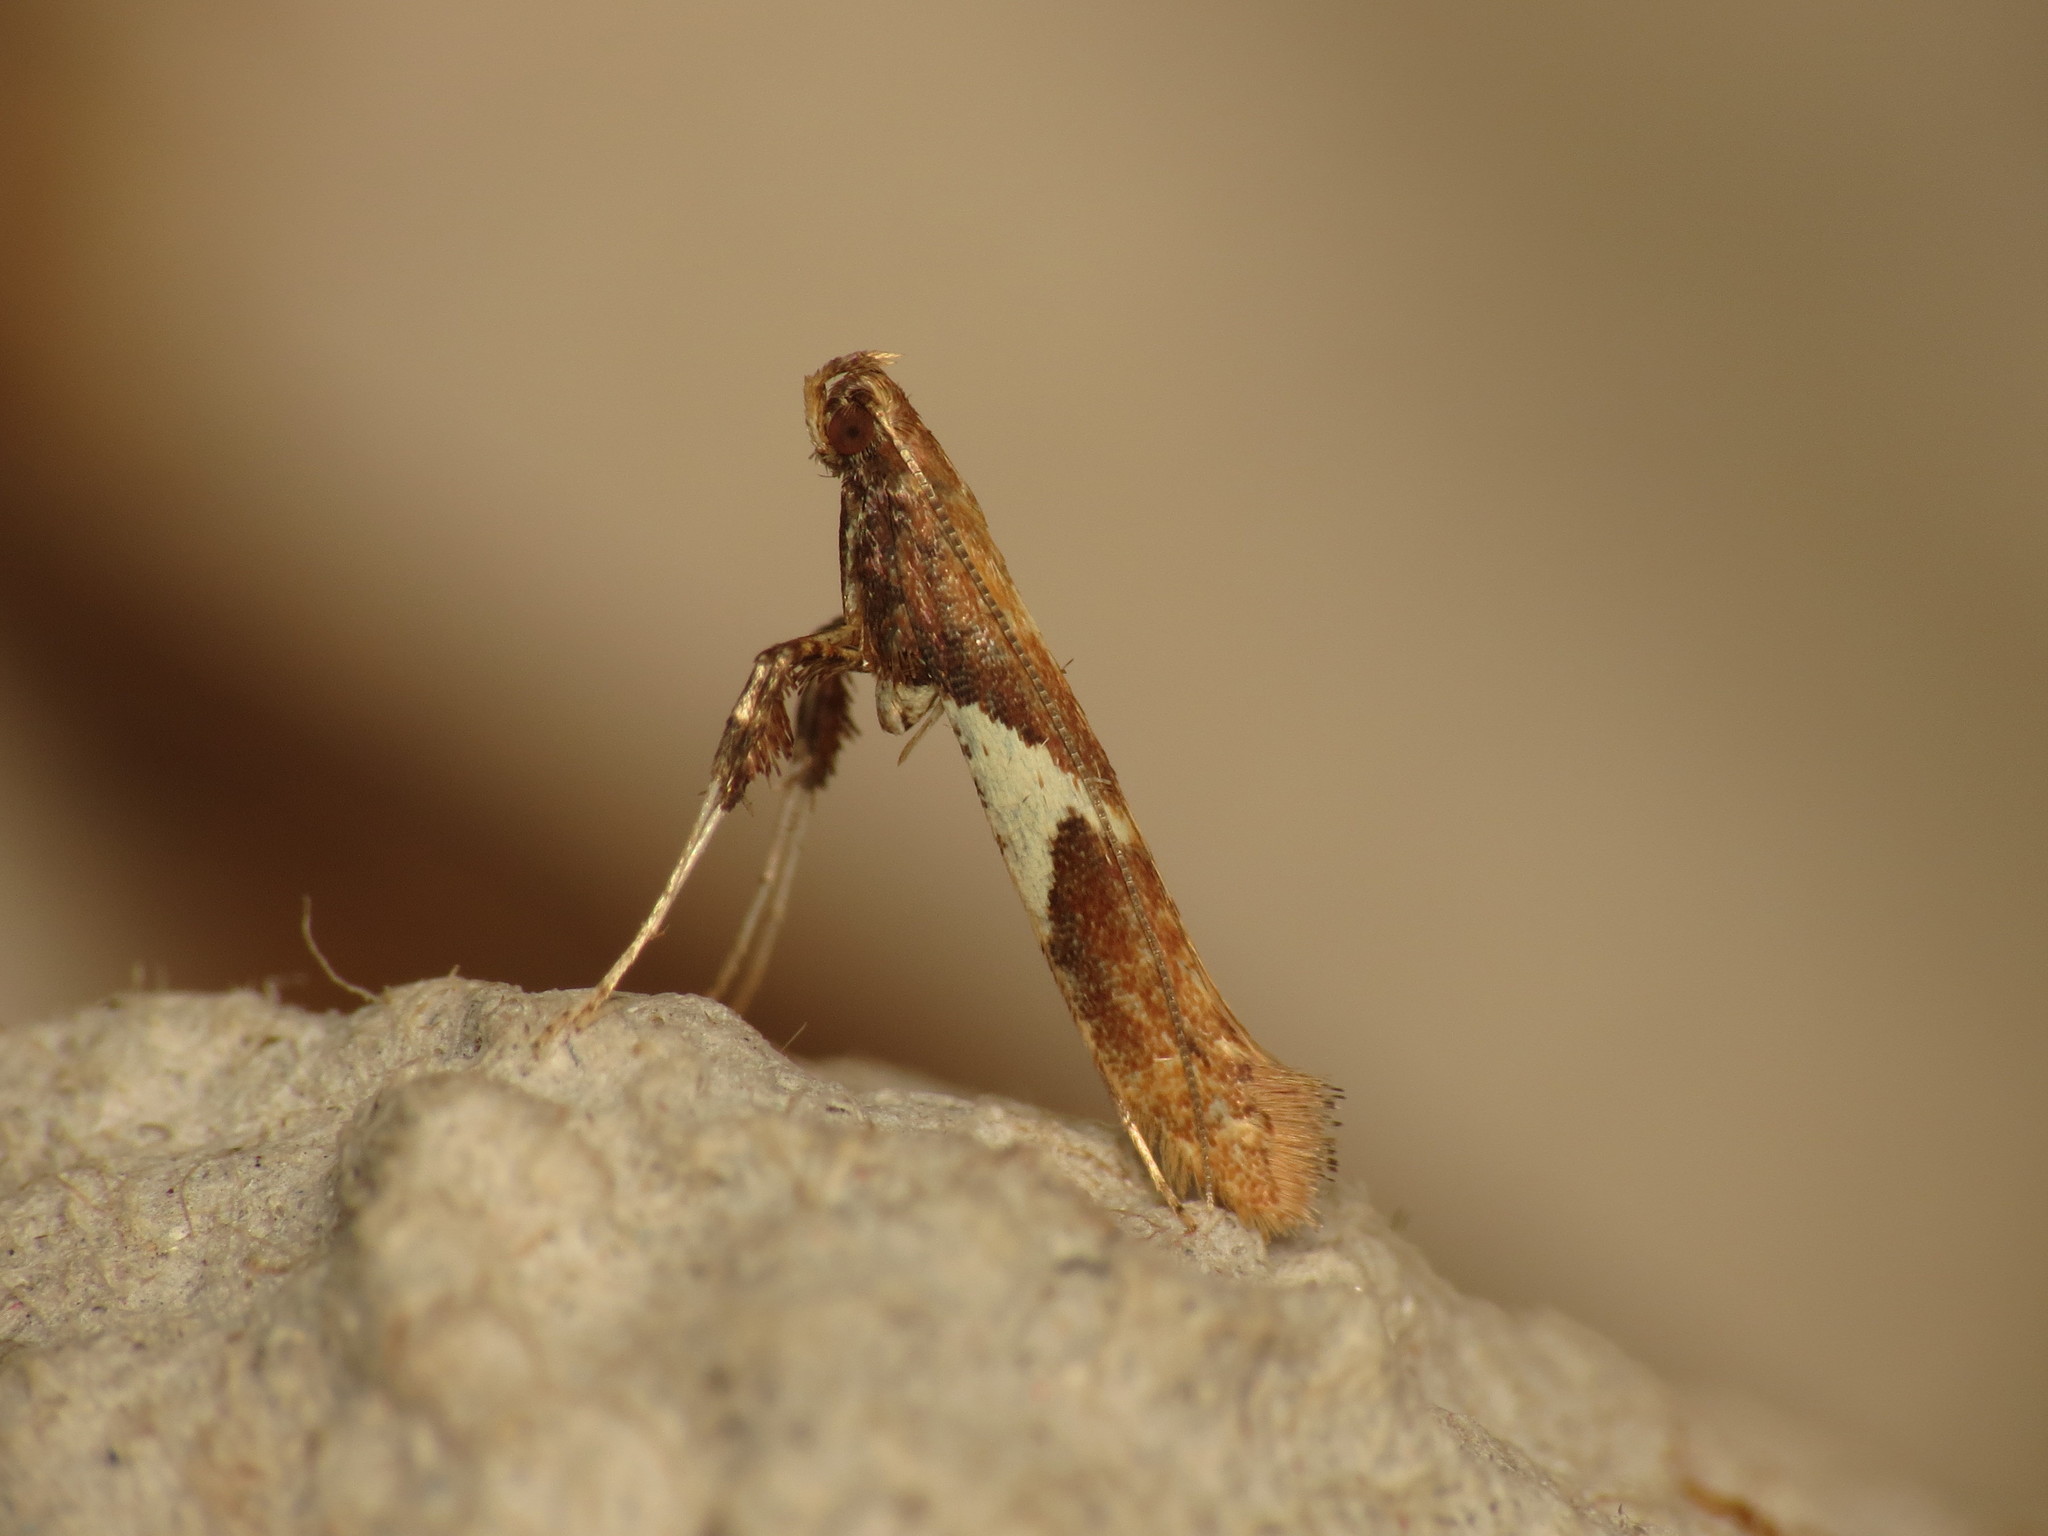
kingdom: Animalia
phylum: Arthropoda
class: Insecta
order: Lepidoptera
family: Gracillariidae
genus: Caloptilia
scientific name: Caloptilia stigmatella
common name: White-triangle slender
